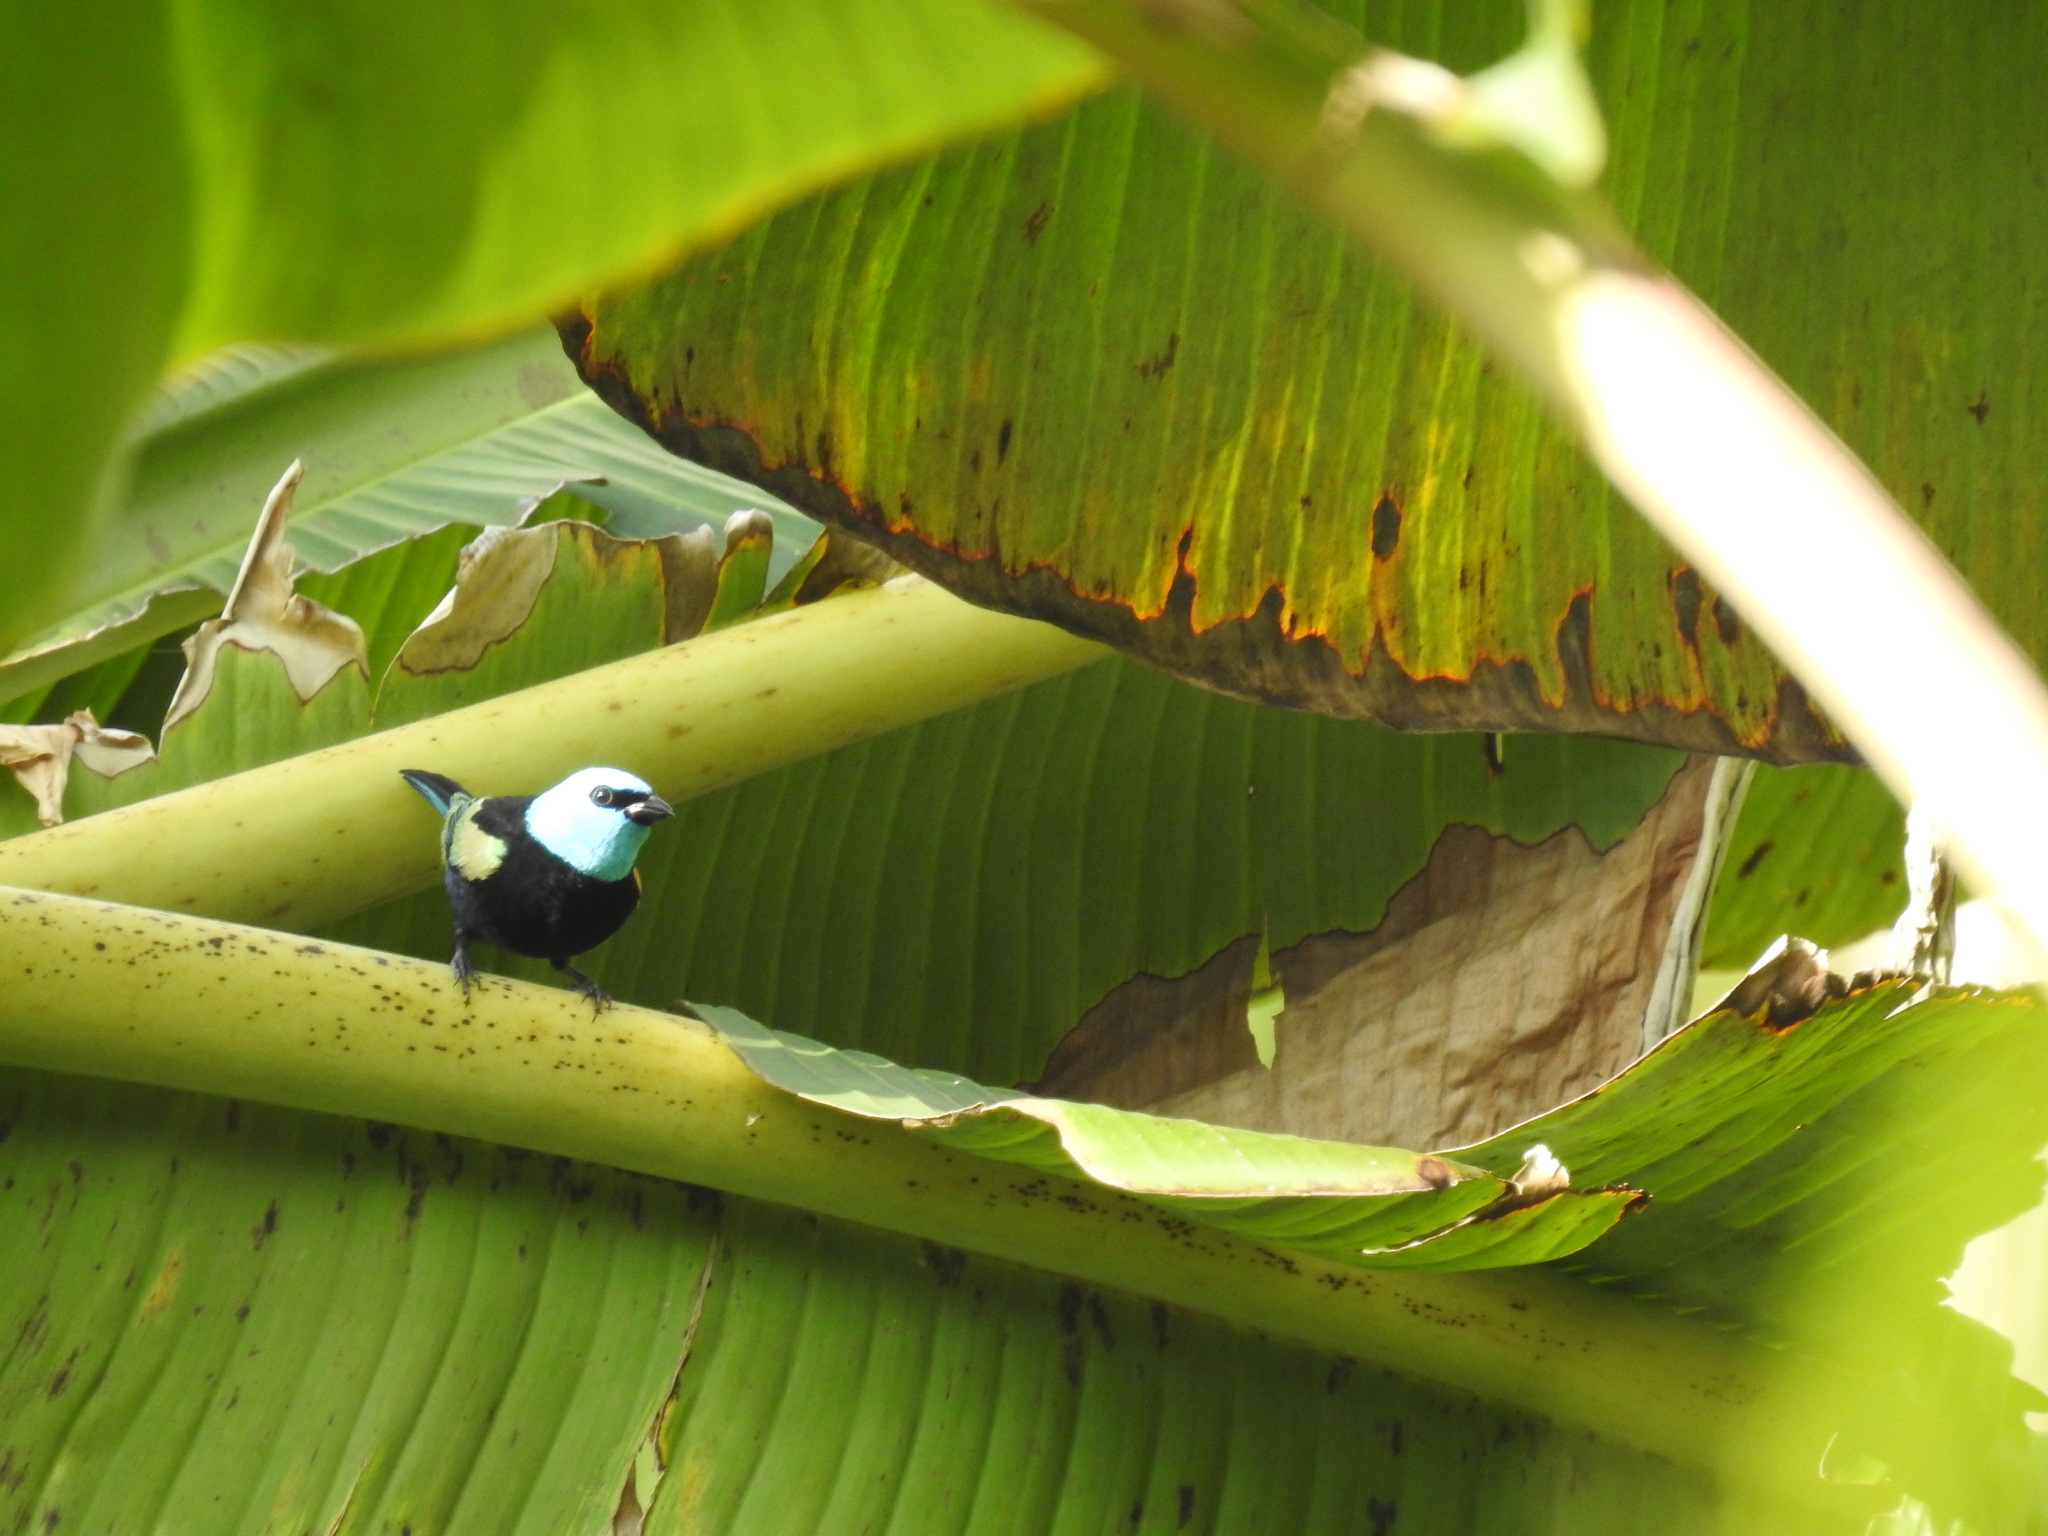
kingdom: Animalia
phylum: Chordata
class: Aves
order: Passeriformes
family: Thraupidae
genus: Stilpnia
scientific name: Stilpnia cyanicollis
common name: Blue-necked tanager
